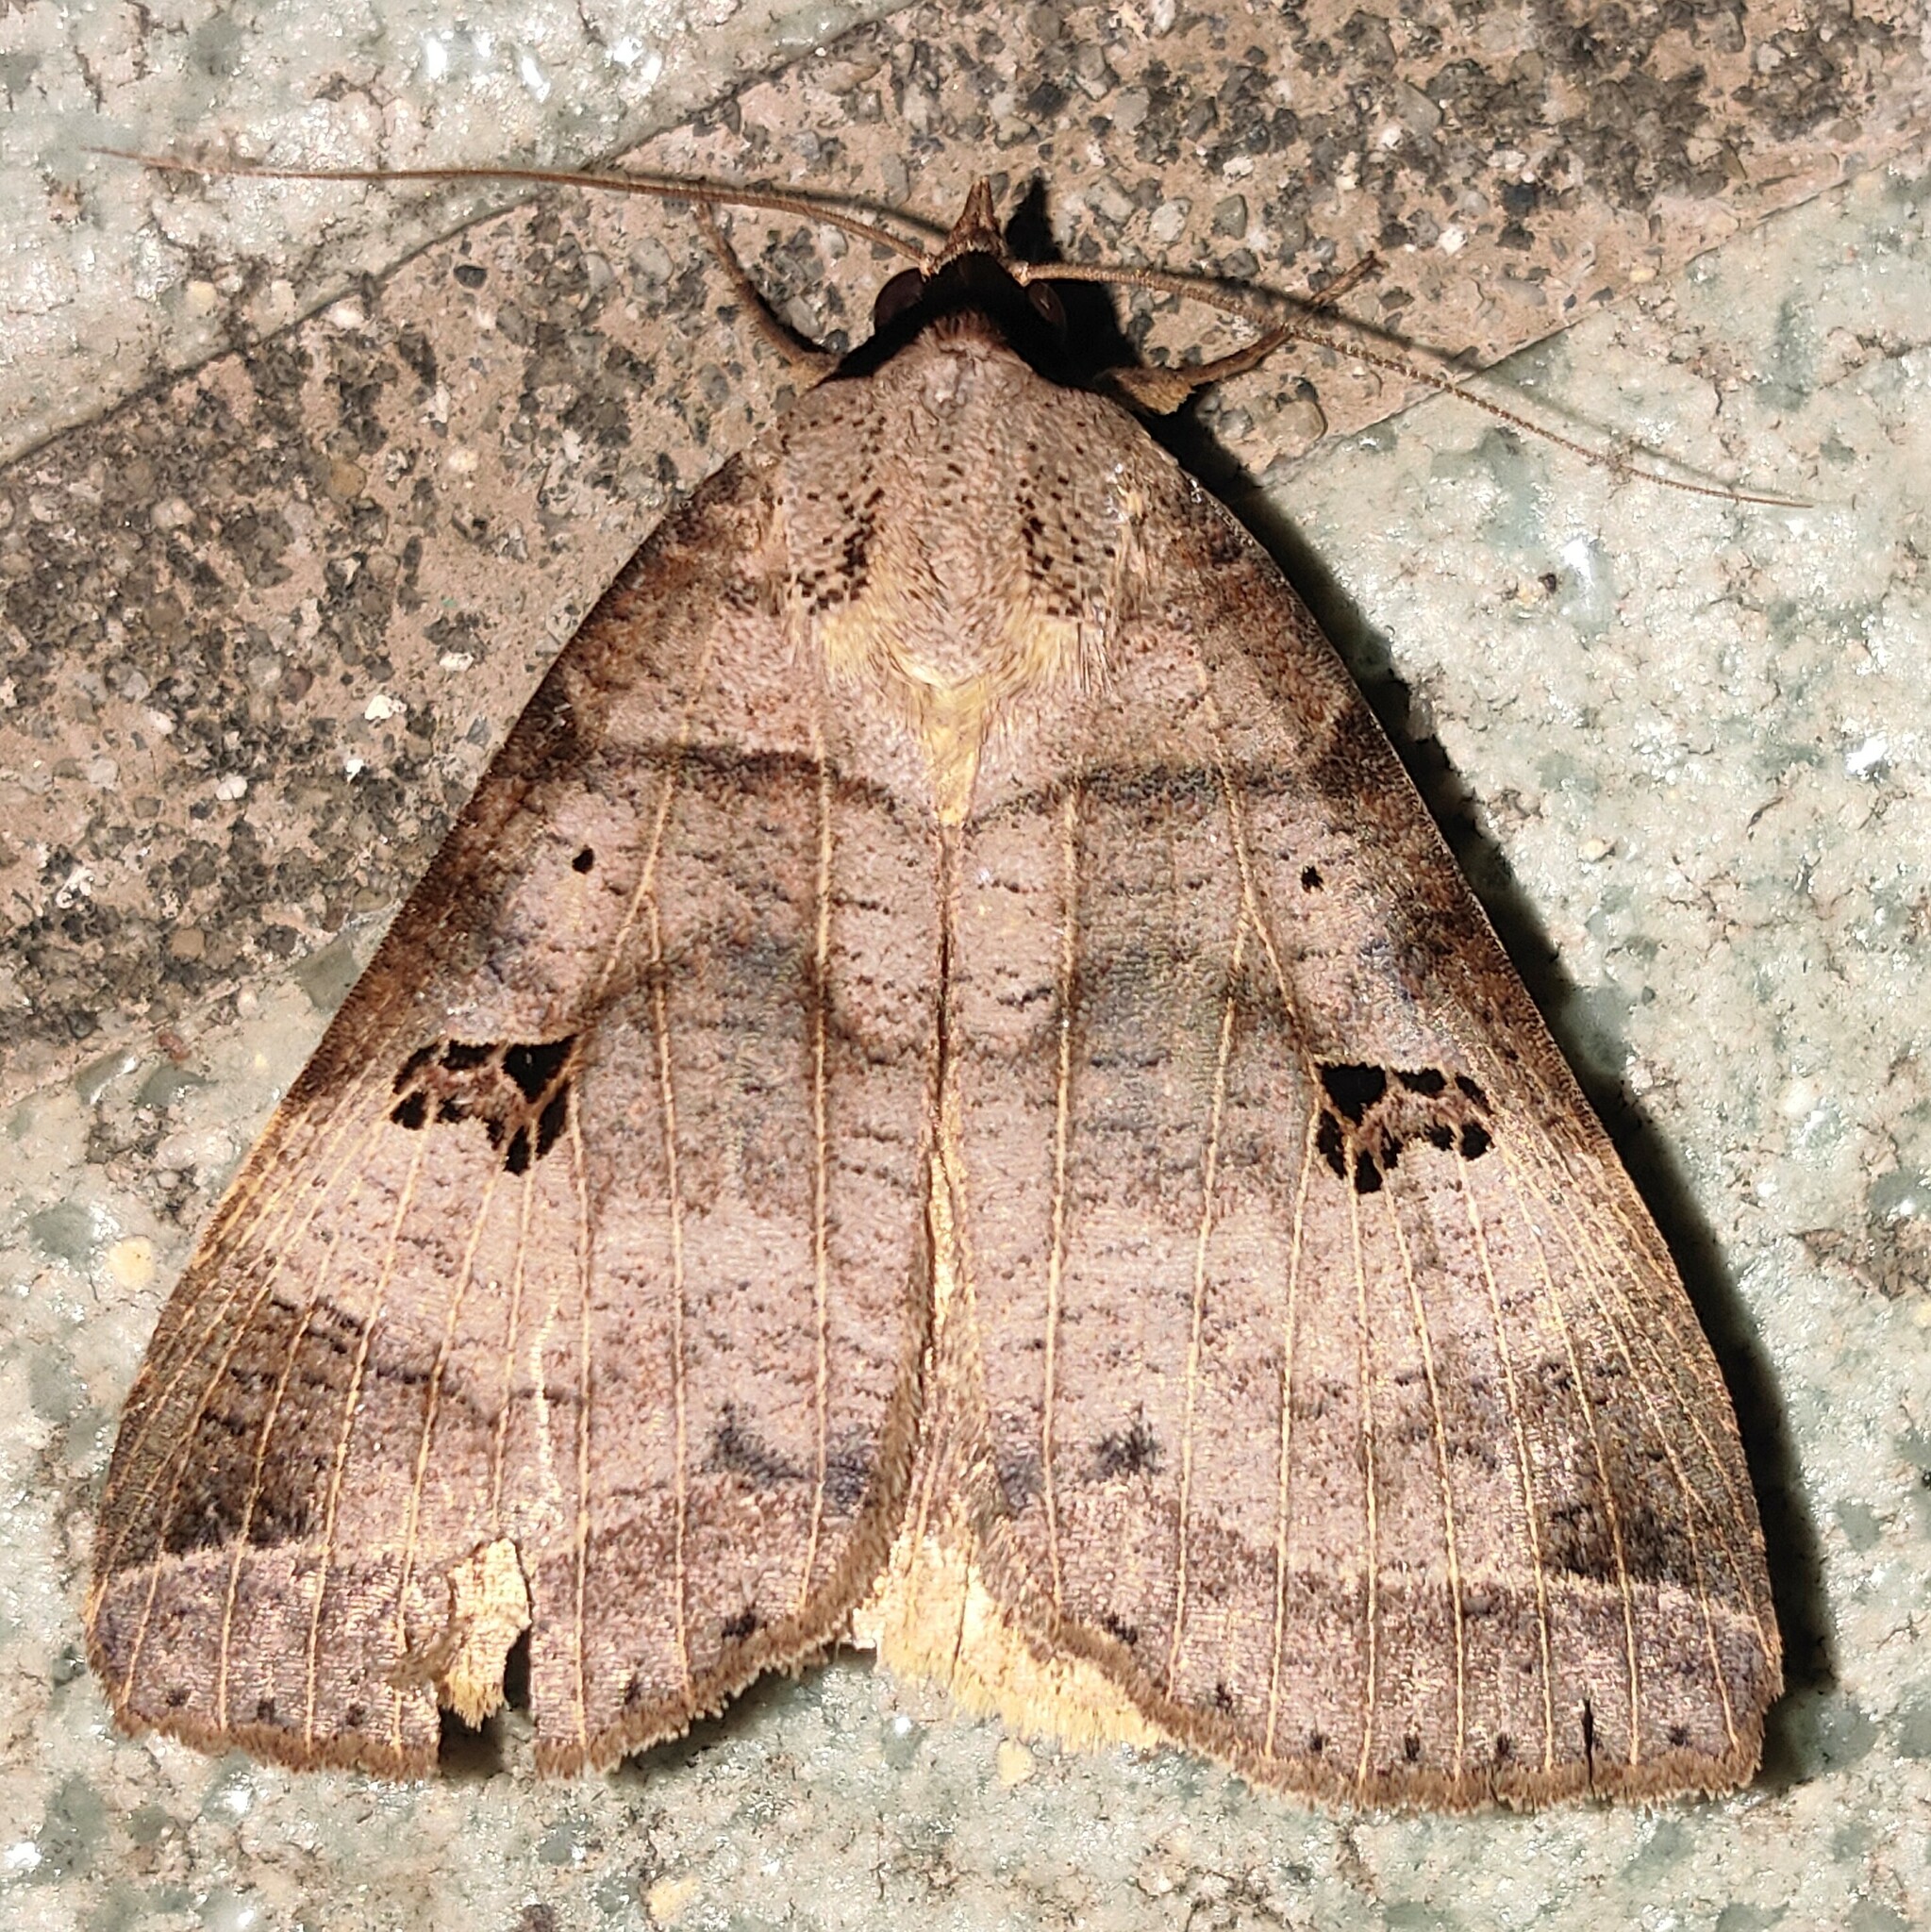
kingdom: Animalia
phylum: Arthropoda
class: Insecta
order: Lepidoptera
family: Erebidae
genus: Lygephila
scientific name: Lygephila maxima
